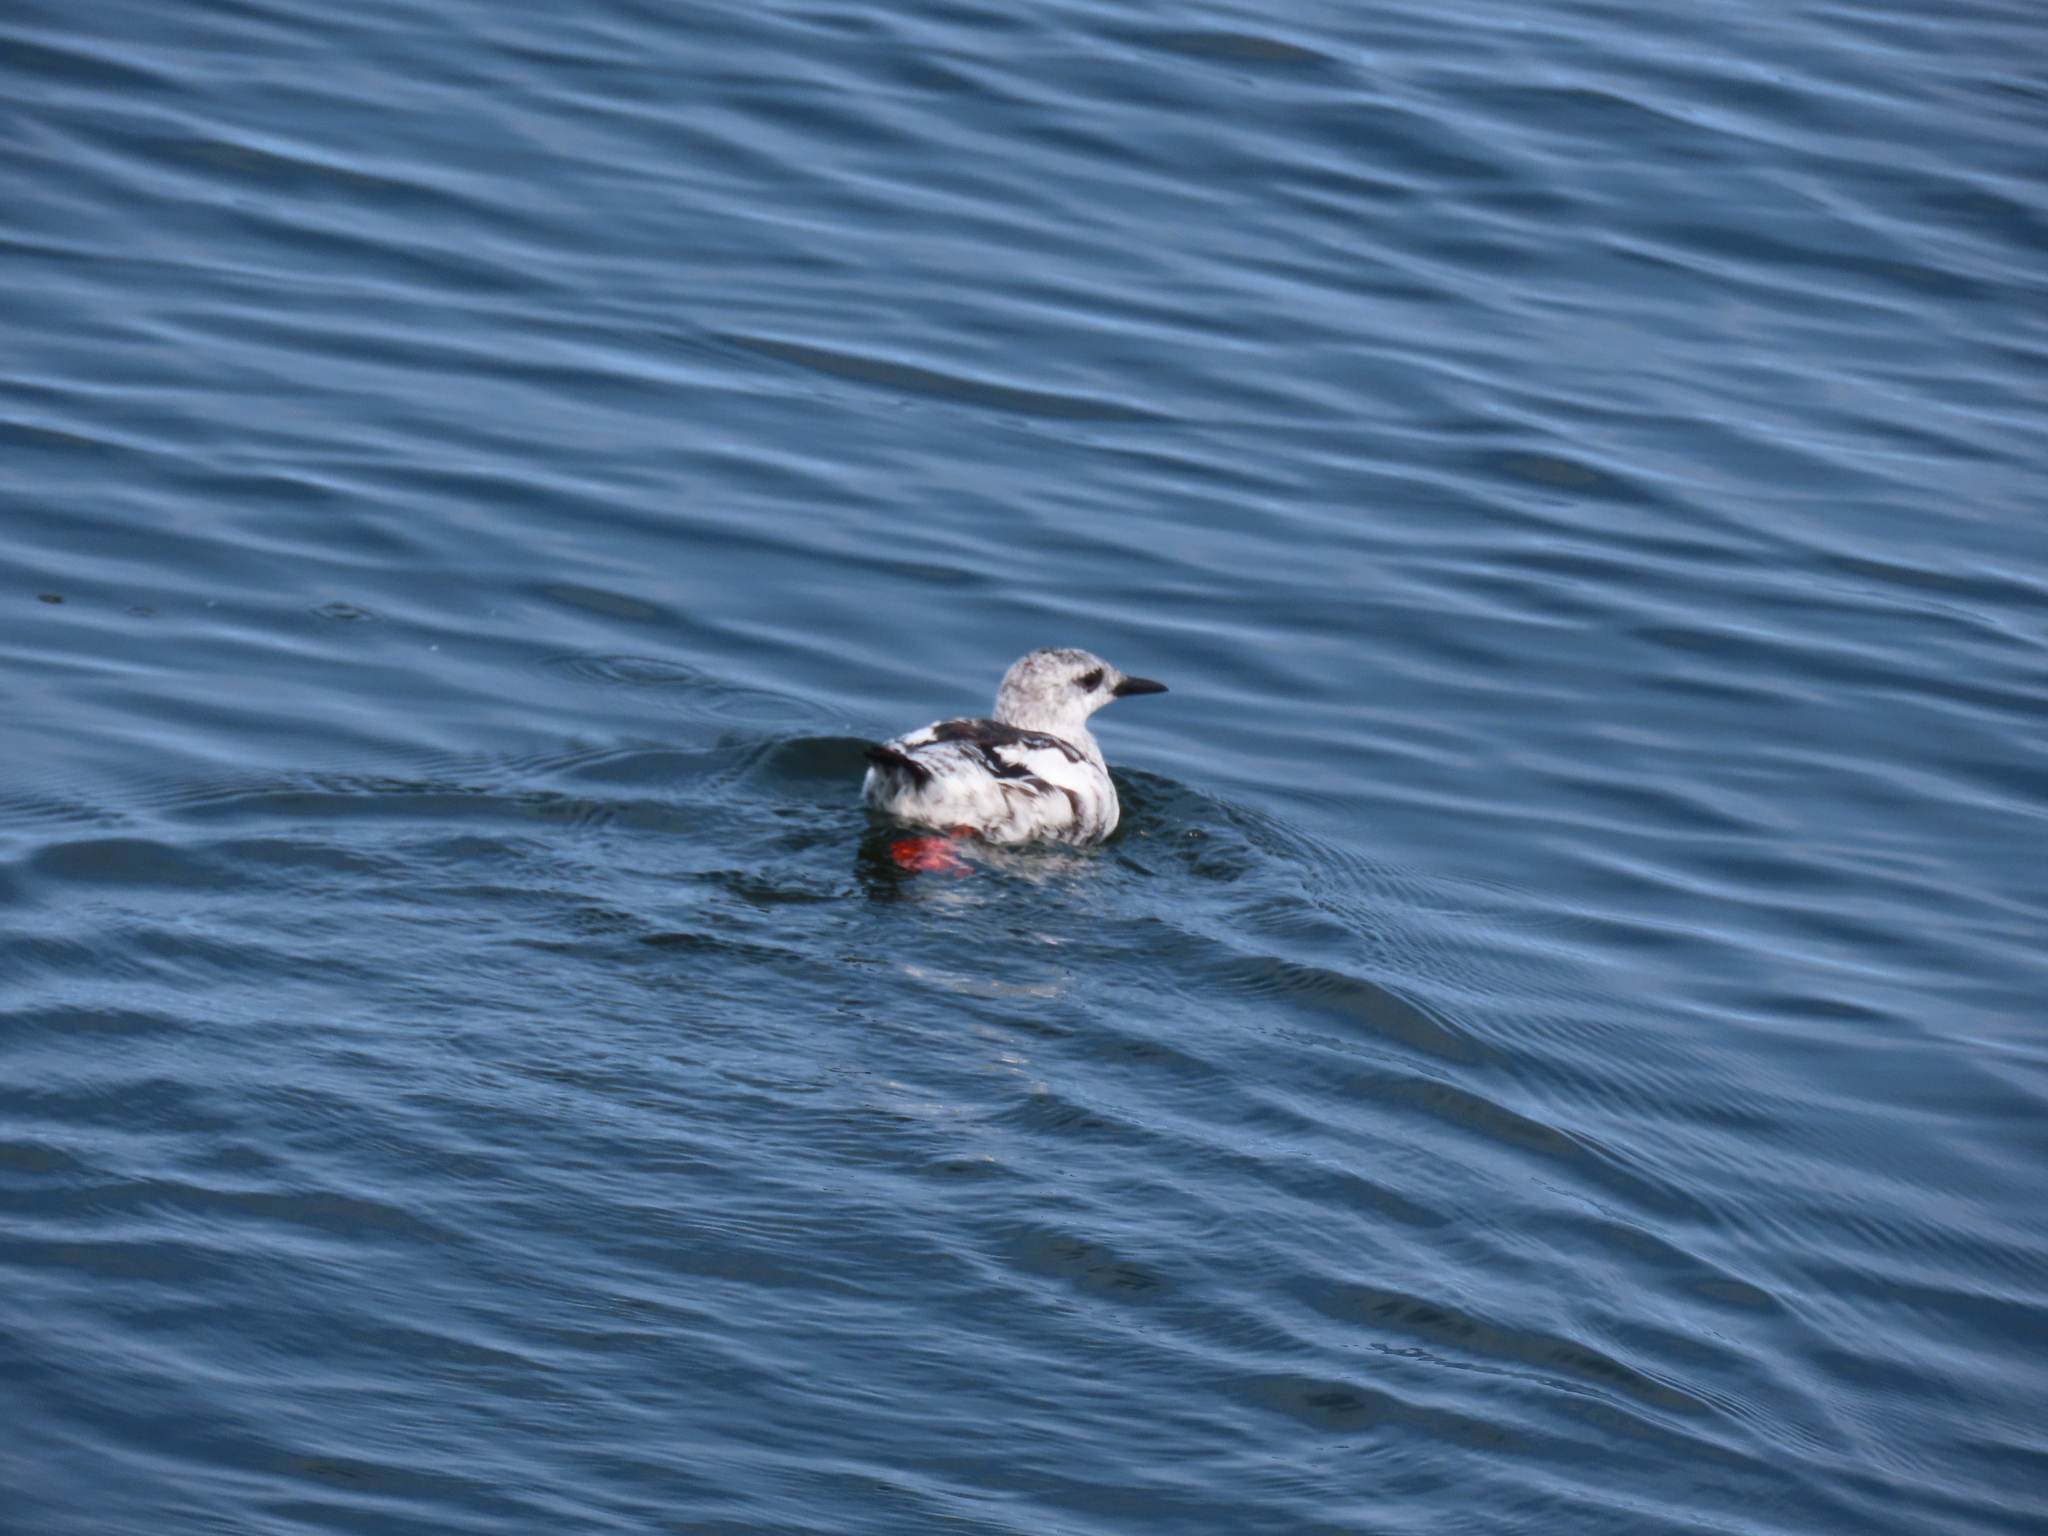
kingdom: Animalia
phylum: Chordata
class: Aves
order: Charadriiformes
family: Alcidae
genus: Cepphus
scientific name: Cepphus grylle
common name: Black guillemot
